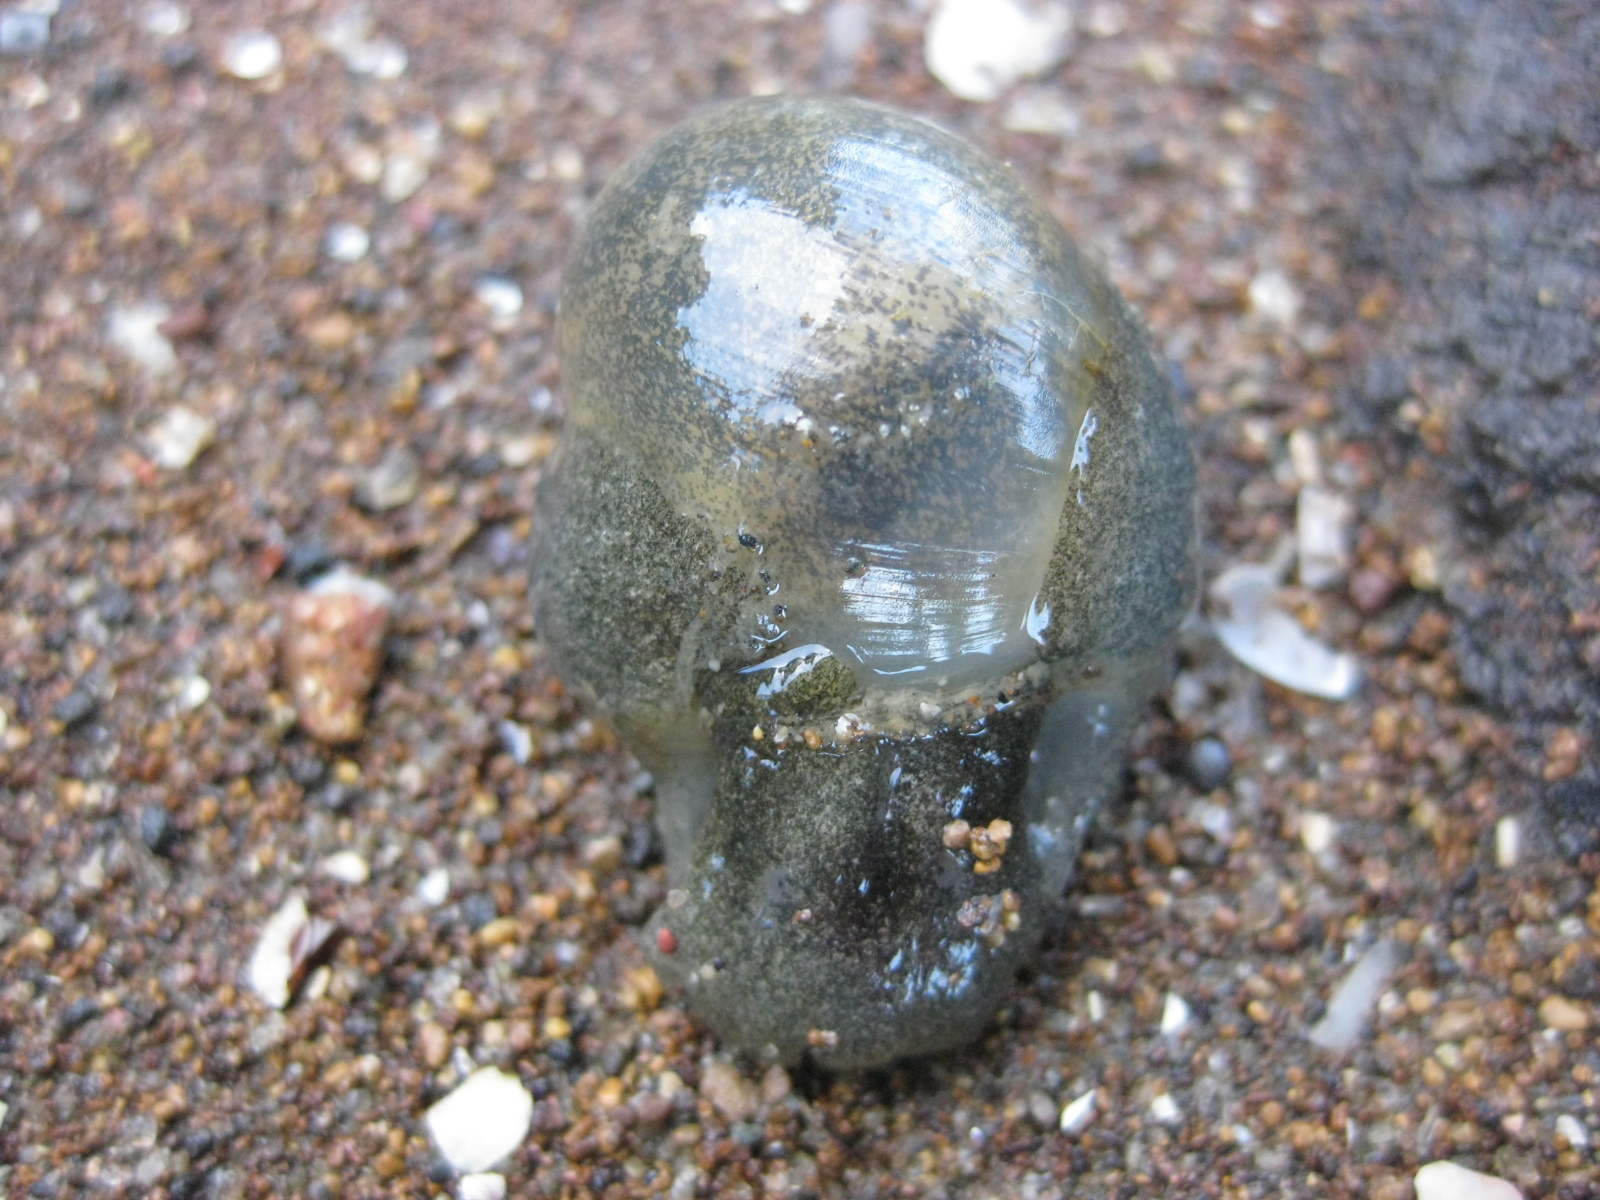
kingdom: Animalia
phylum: Mollusca
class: Gastropoda
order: Cephalaspidea
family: Haminoeidae
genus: Papawera
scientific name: Papawera zelandiae
